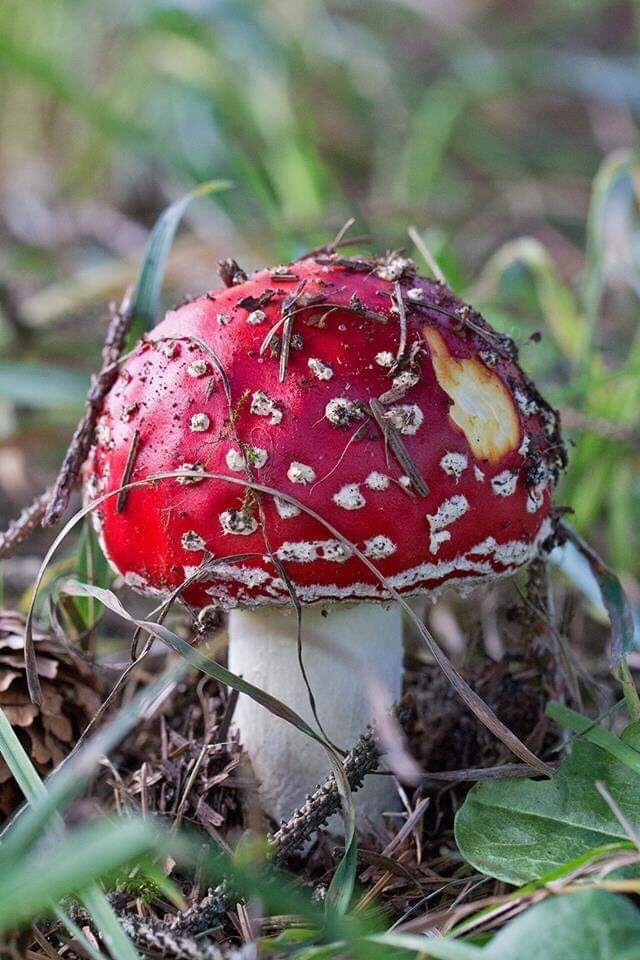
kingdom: Fungi
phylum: Basidiomycota
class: Agaricomycetes
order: Agaricales
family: Amanitaceae
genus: Amanita
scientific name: Amanita muscaria
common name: Fly agaric
